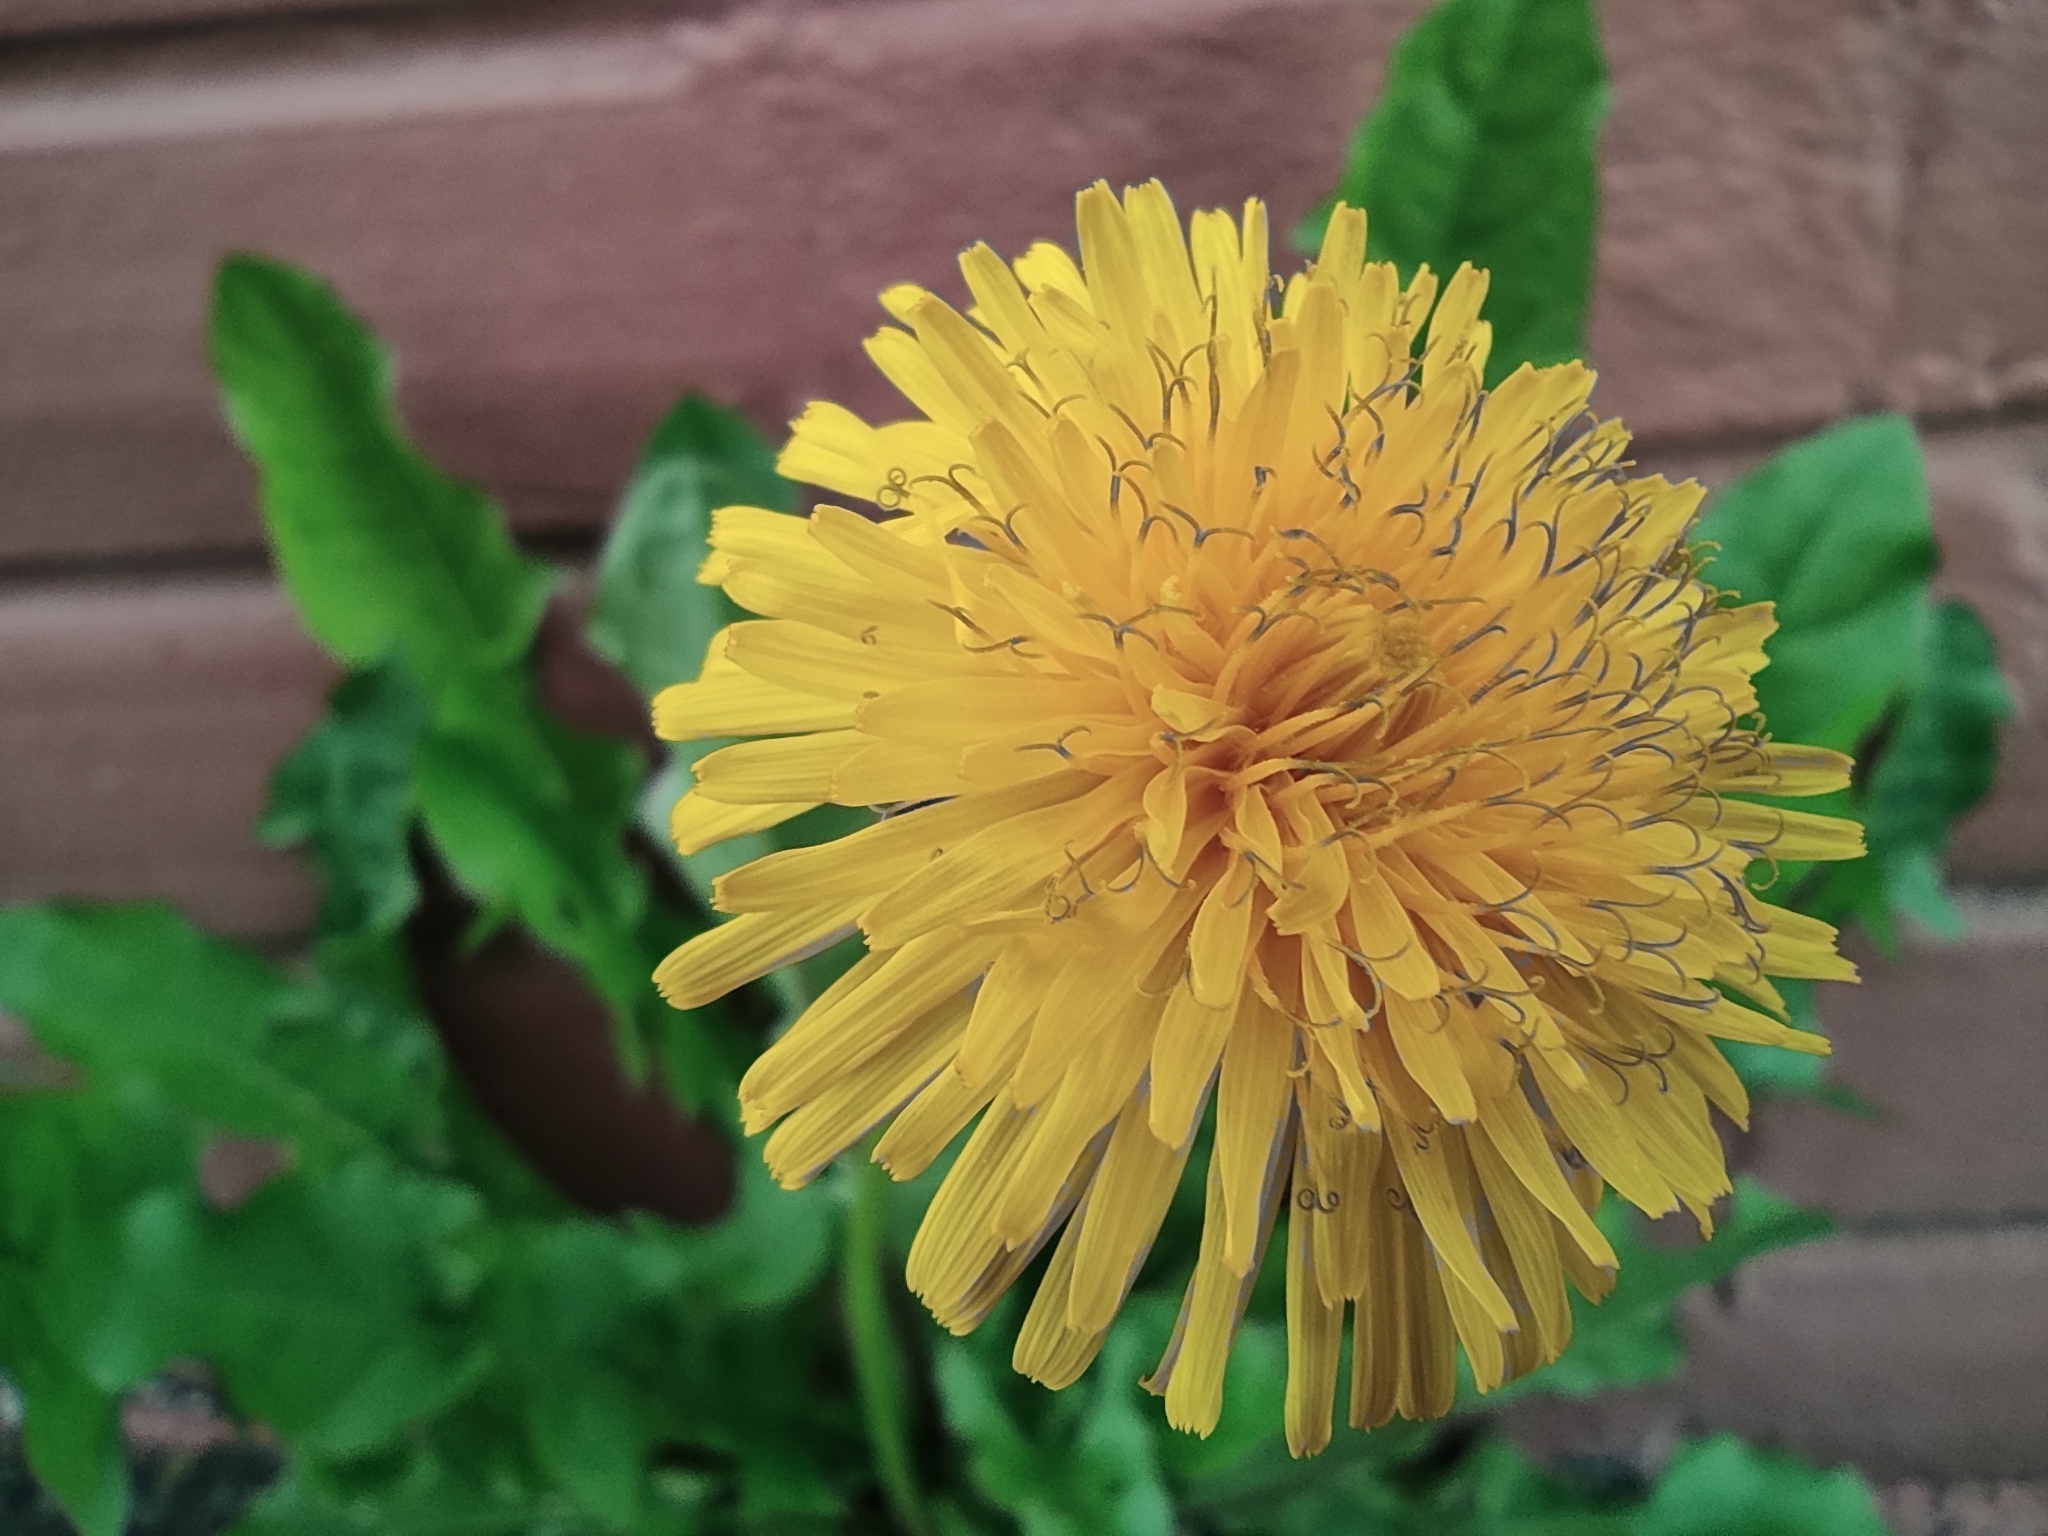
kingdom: Plantae
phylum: Tracheophyta
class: Magnoliopsida
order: Asterales
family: Asteraceae
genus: Taraxacum
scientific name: Taraxacum officinale
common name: Common dandelion
